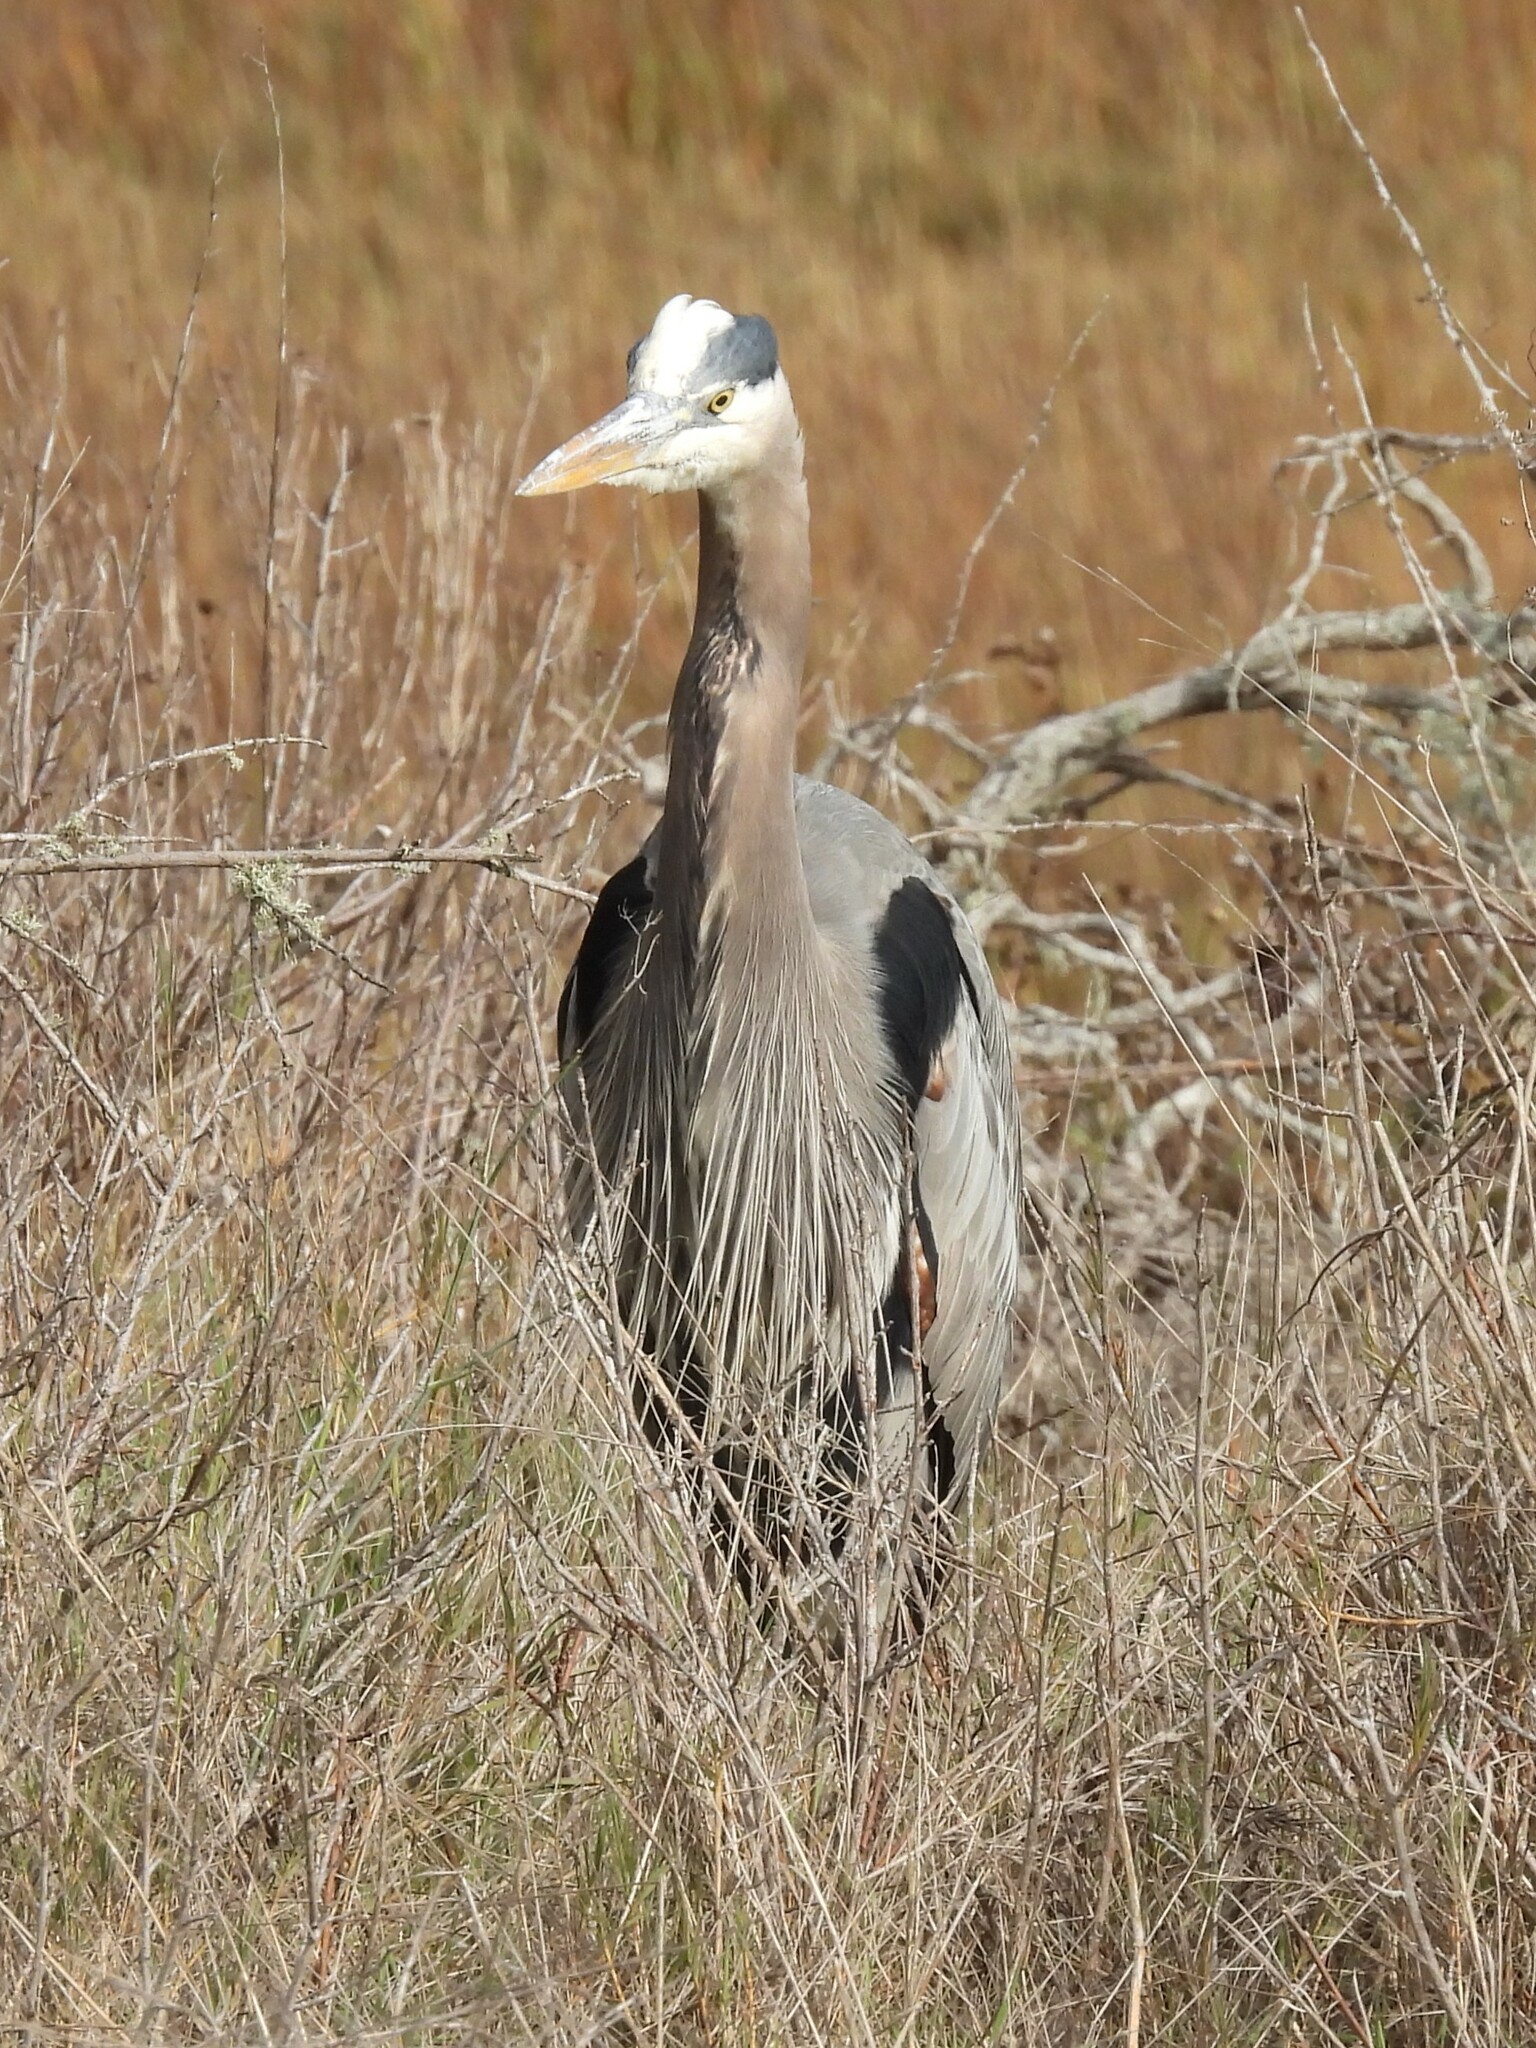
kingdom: Animalia
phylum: Chordata
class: Aves
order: Pelecaniformes
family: Ardeidae
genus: Ardea
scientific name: Ardea herodias
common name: Great blue heron
